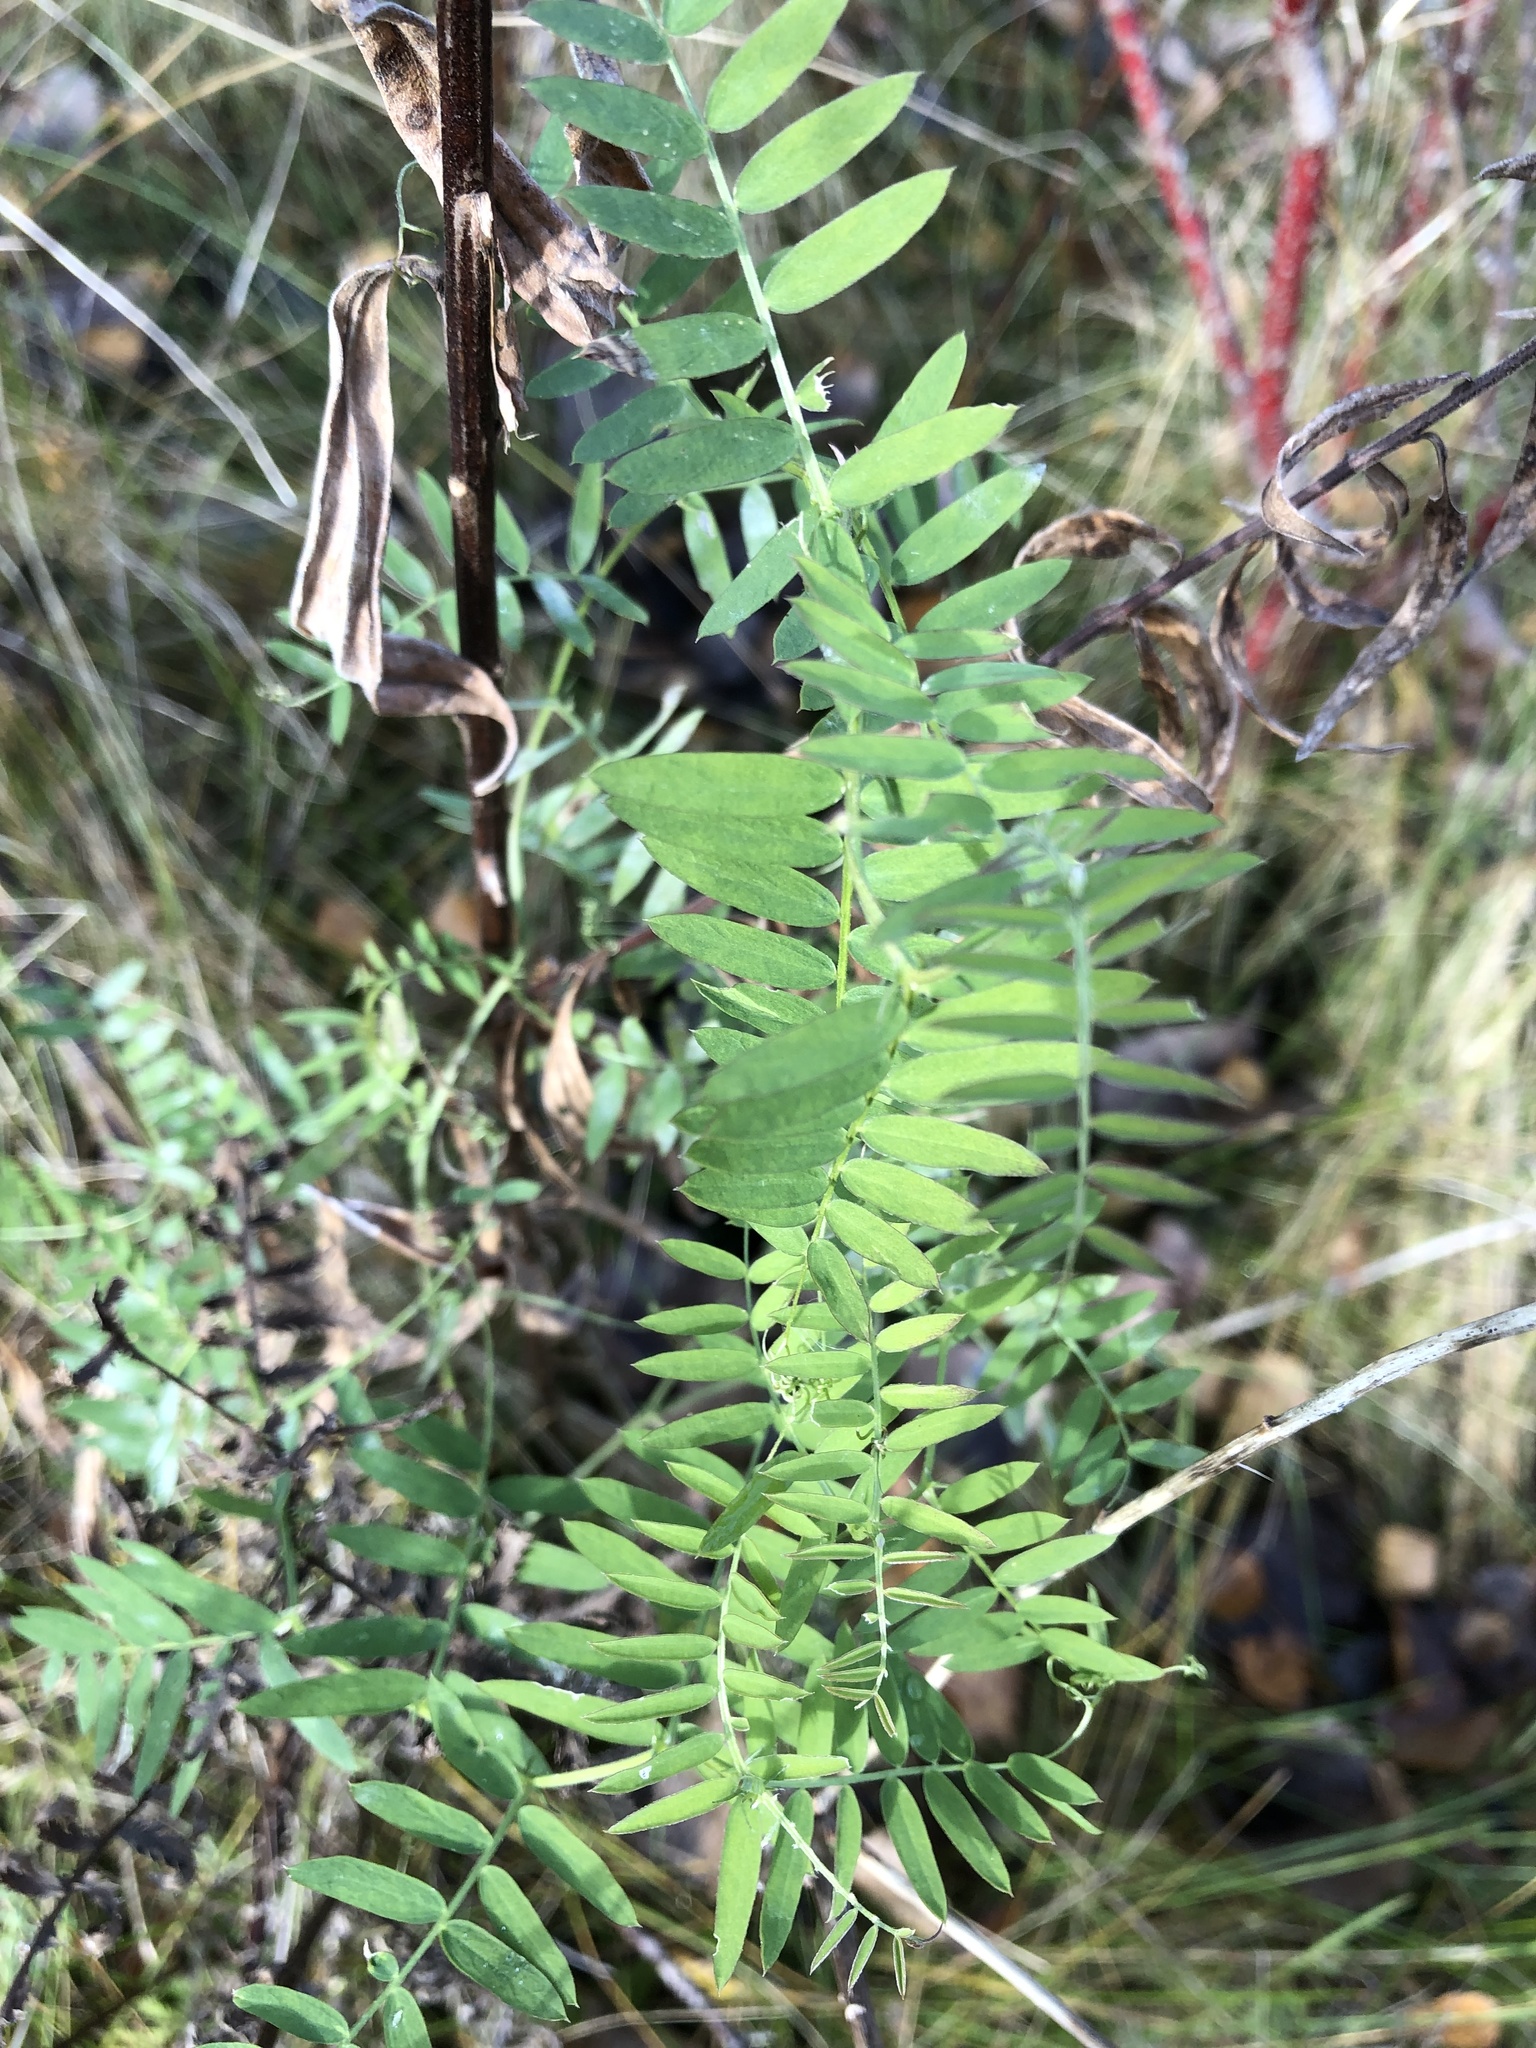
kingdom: Plantae
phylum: Tracheophyta
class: Magnoliopsida
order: Fabales
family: Fabaceae
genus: Vicia
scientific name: Vicia cracca
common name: Bird vetch
